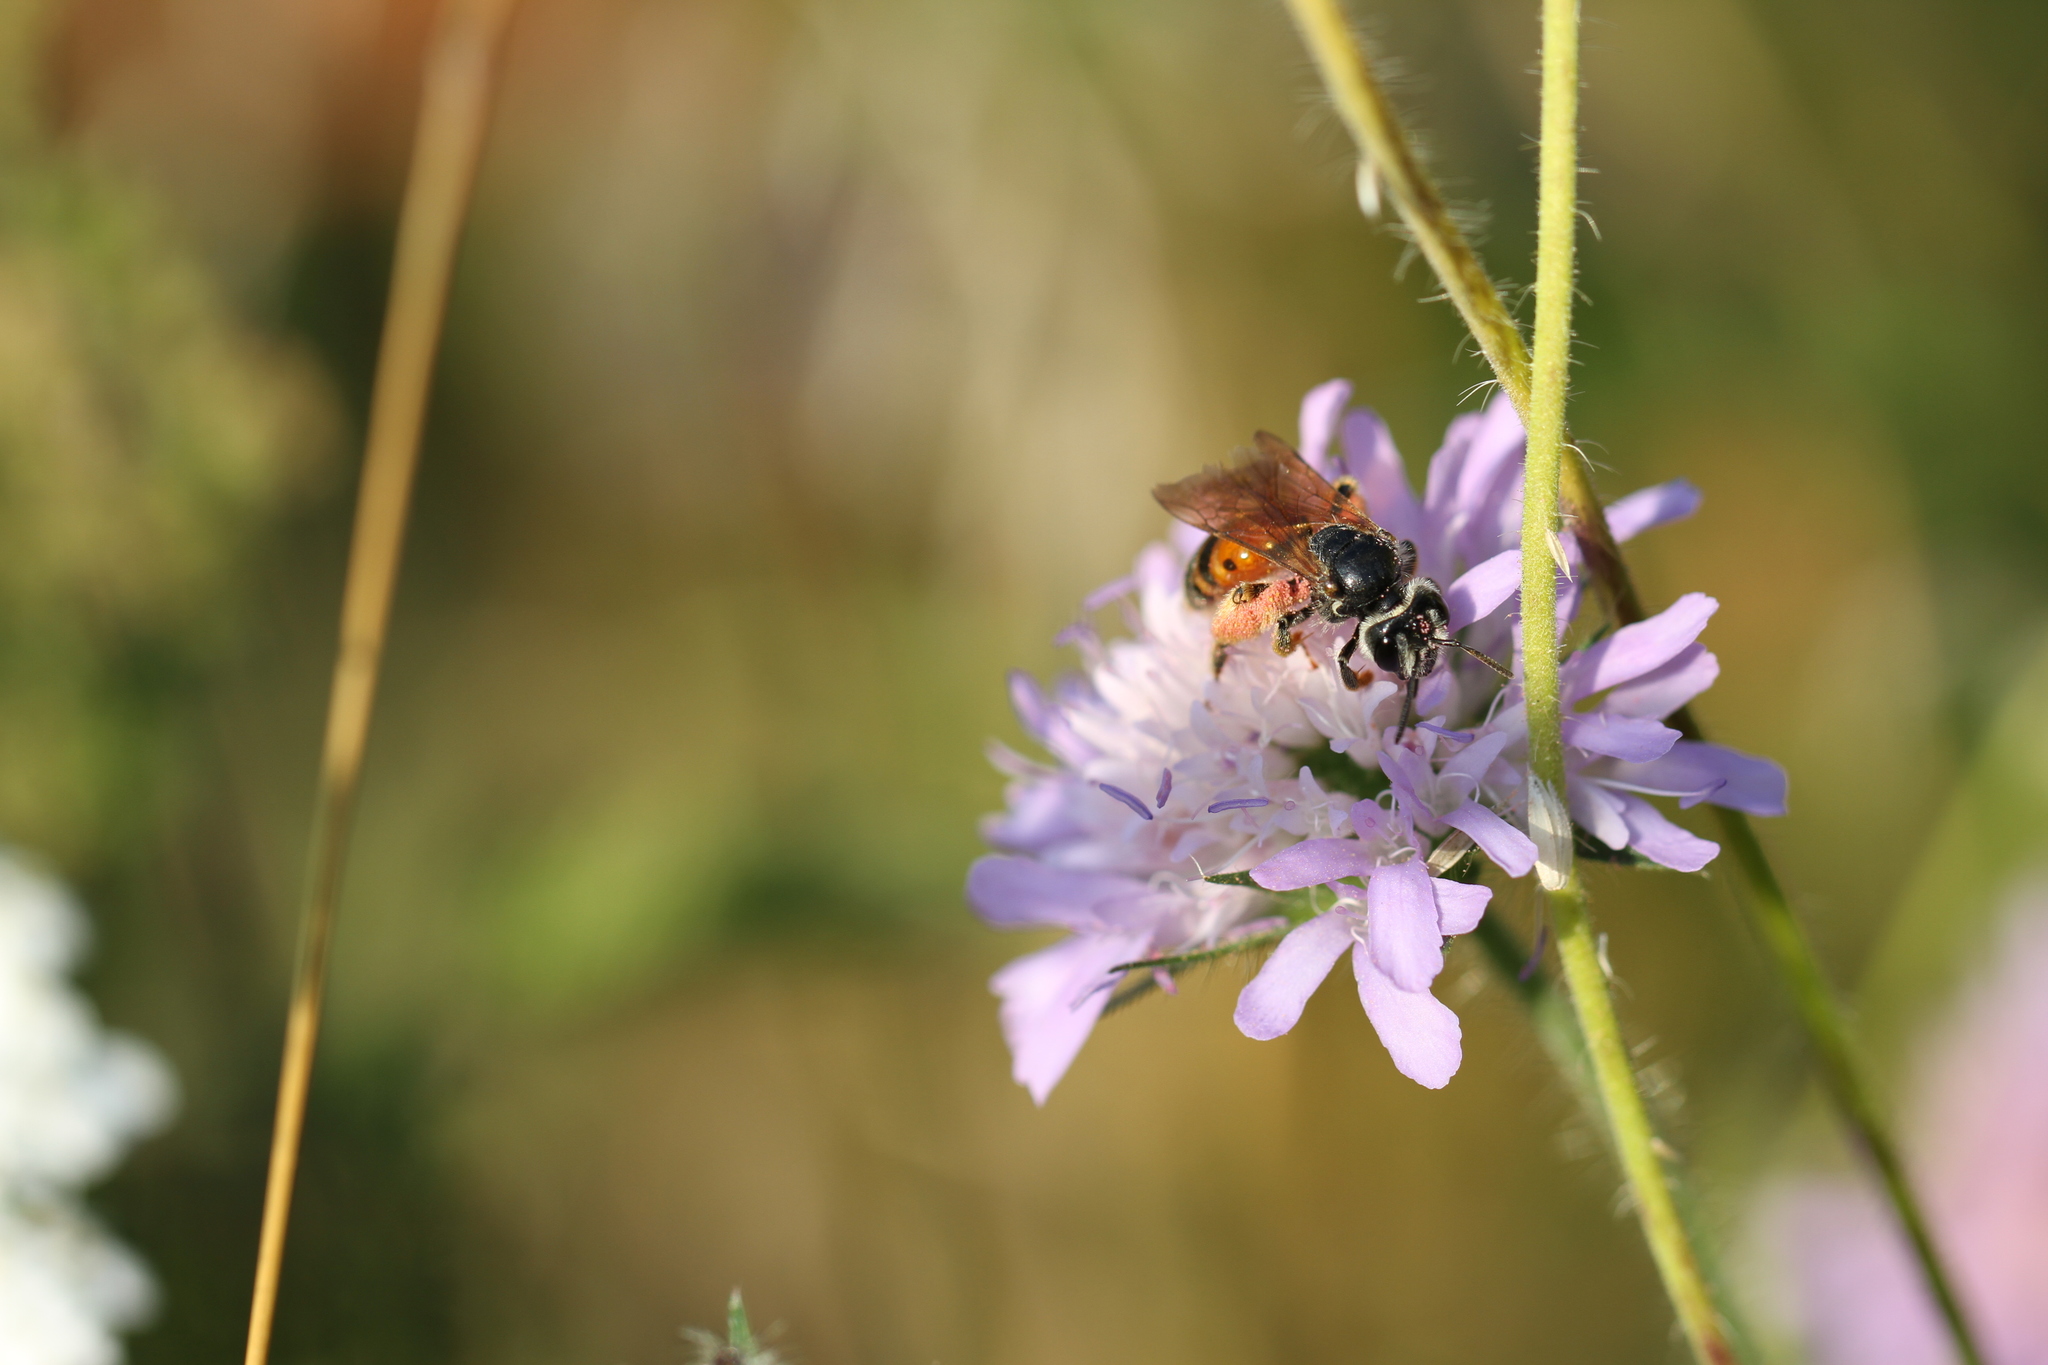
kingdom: Animalia
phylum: Arthropoda
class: Insecta
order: Hymenoptera
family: Andrenidae
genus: Andrena
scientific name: Andrena hattorfiana
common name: Large scabious mining bee
